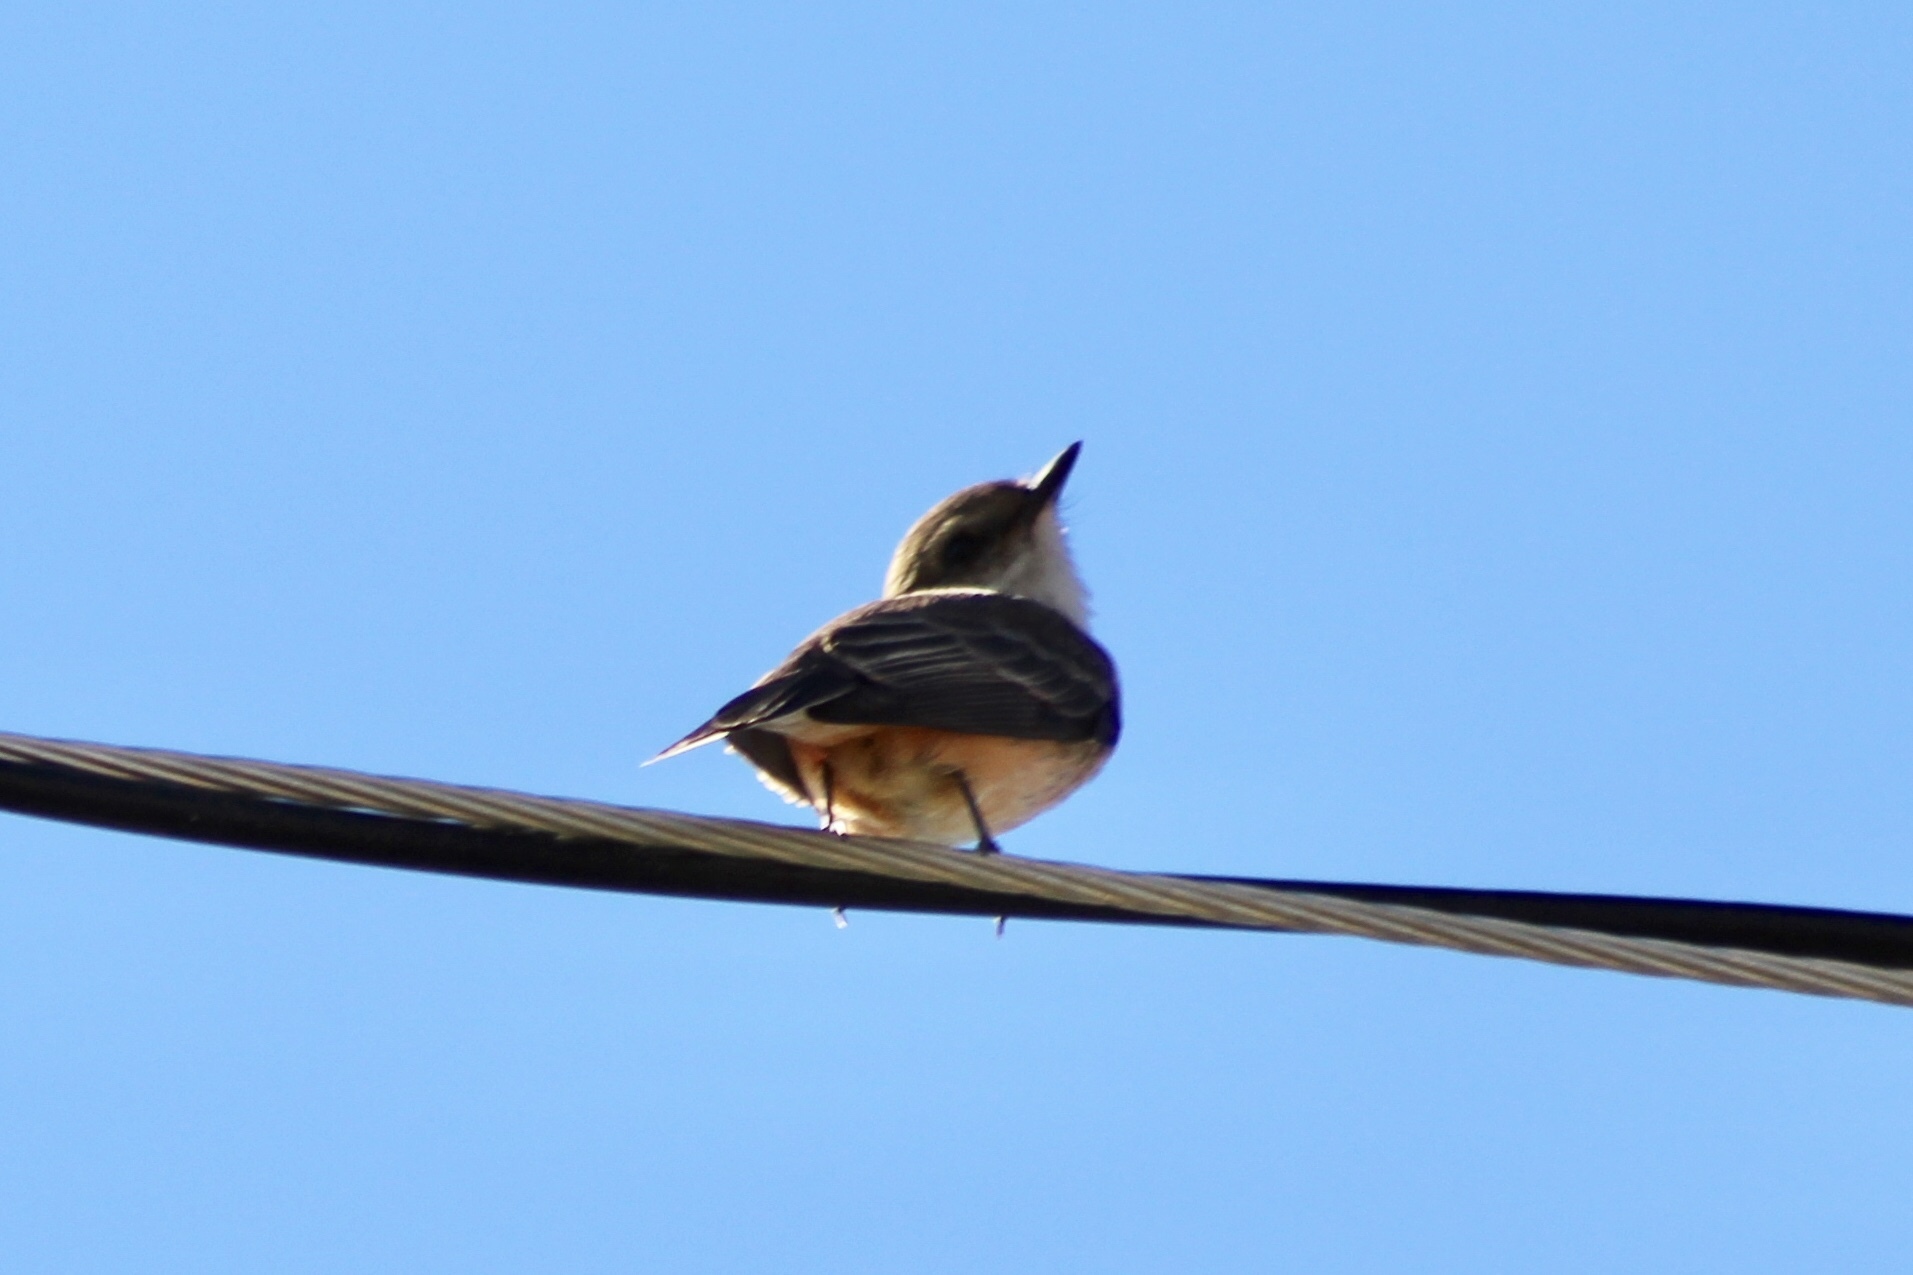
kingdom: Animalia
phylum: Chordata
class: Aves
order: Passeriformes
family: Tyrannidae
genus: Pyrocephalus
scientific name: Pyrocephalus rubinus
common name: Vermilion flycatcher
